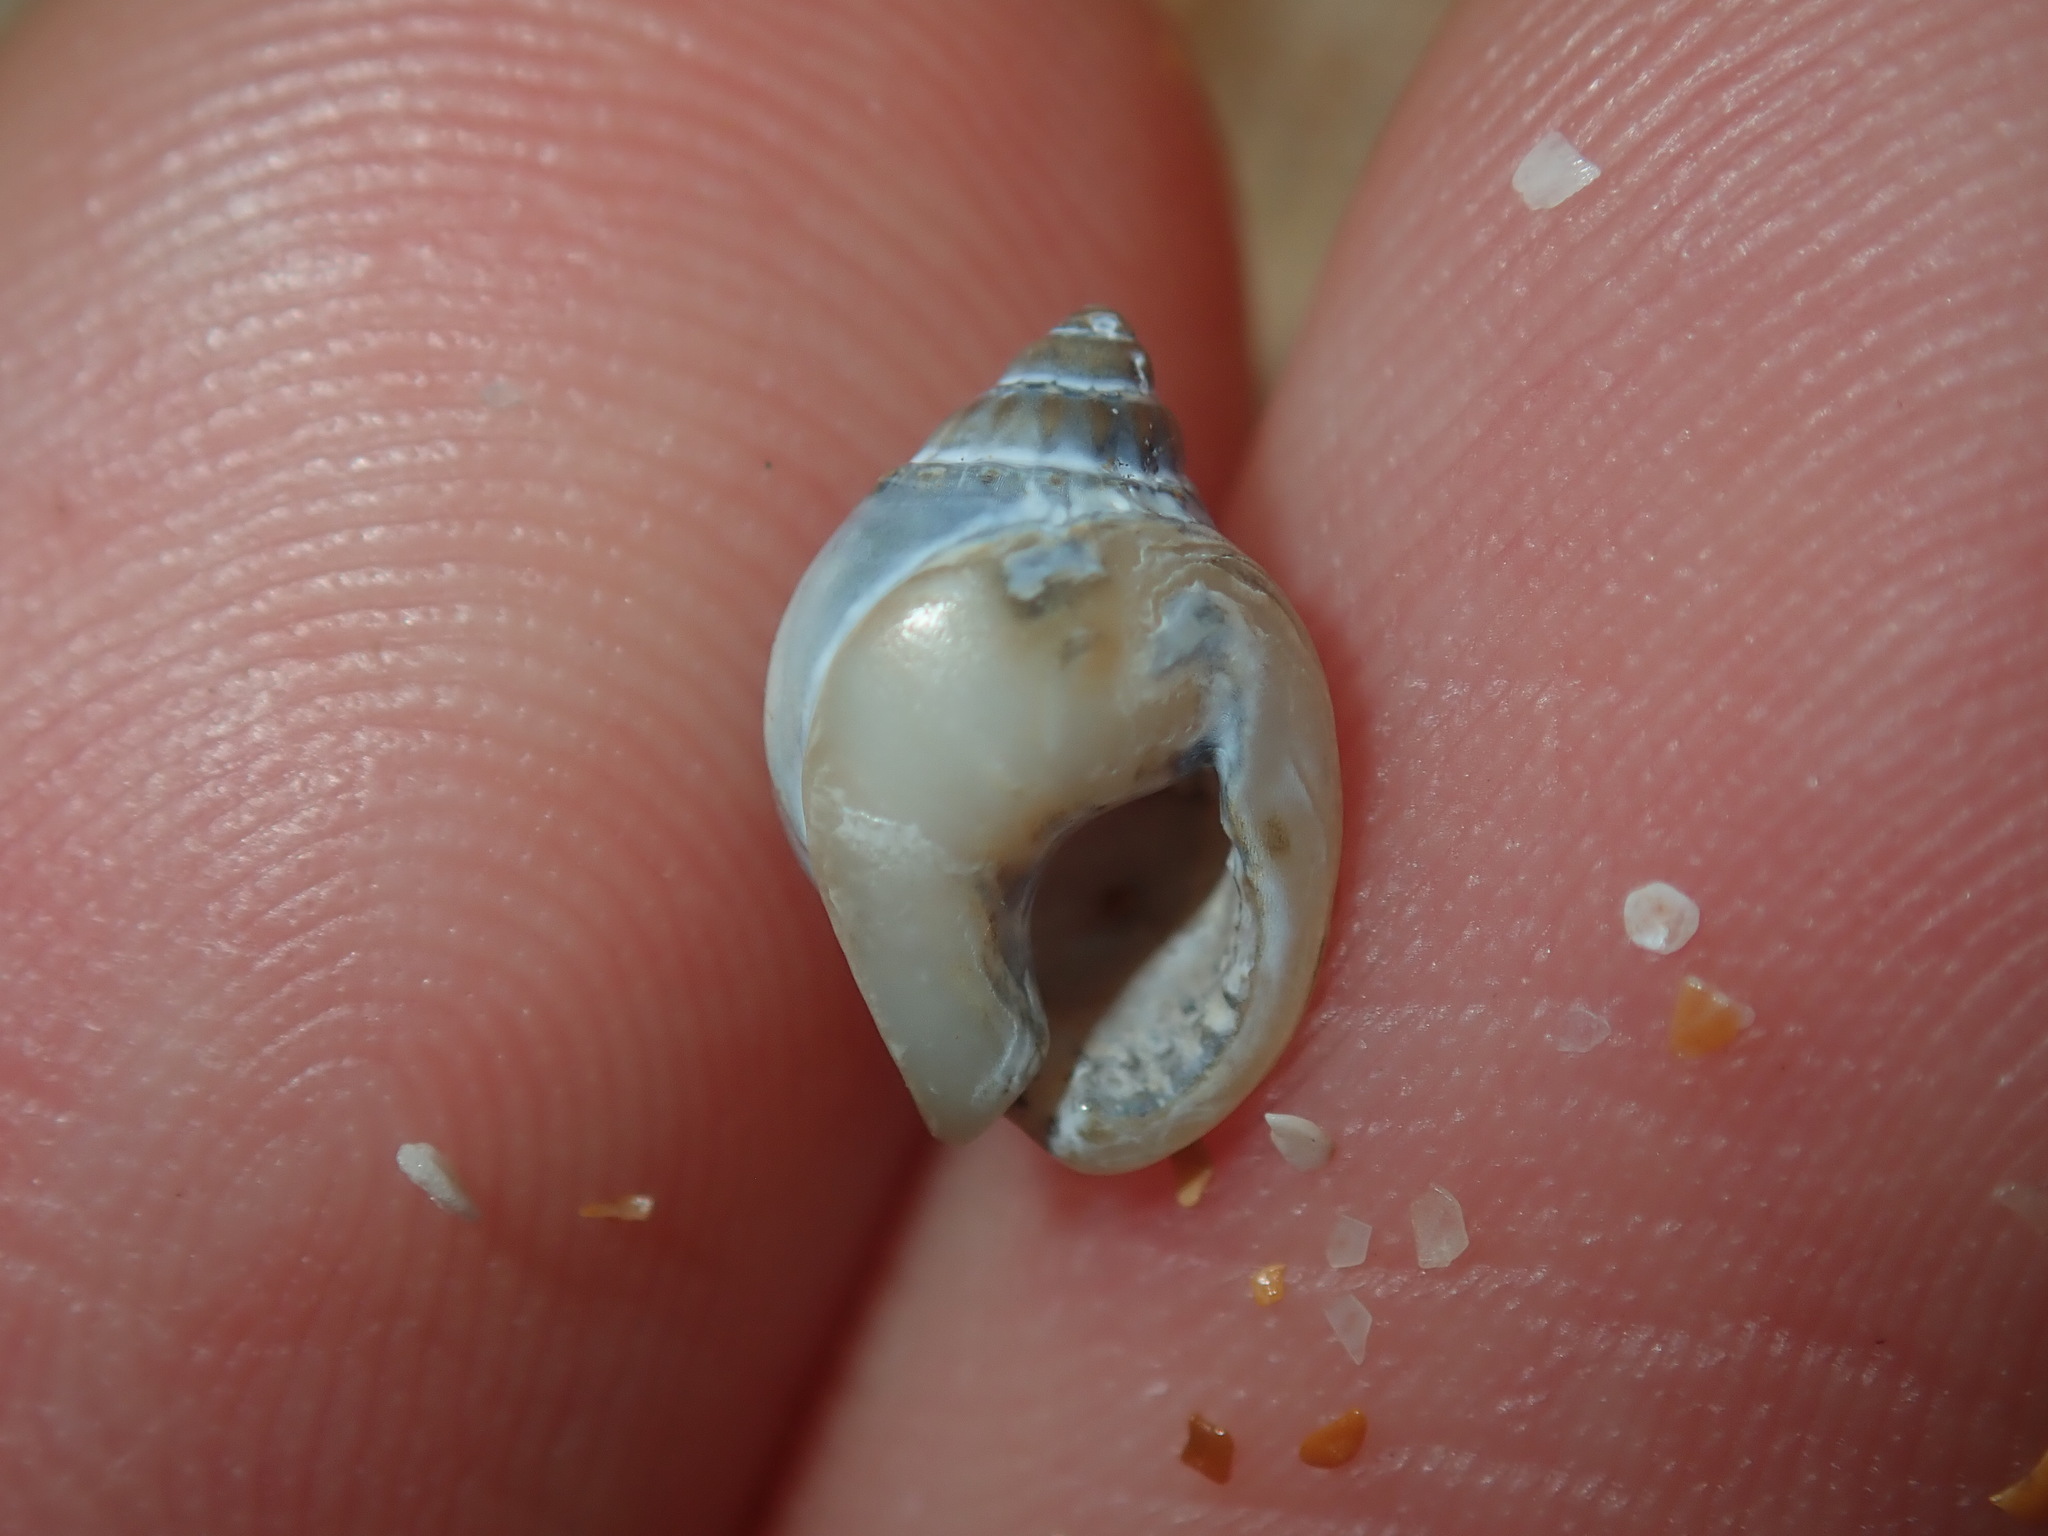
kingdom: Animalia
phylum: Mollusca
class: Gastropoda
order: Neogastropoda
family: Nassariidae
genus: Nassarius
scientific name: Nassarius jonasii
